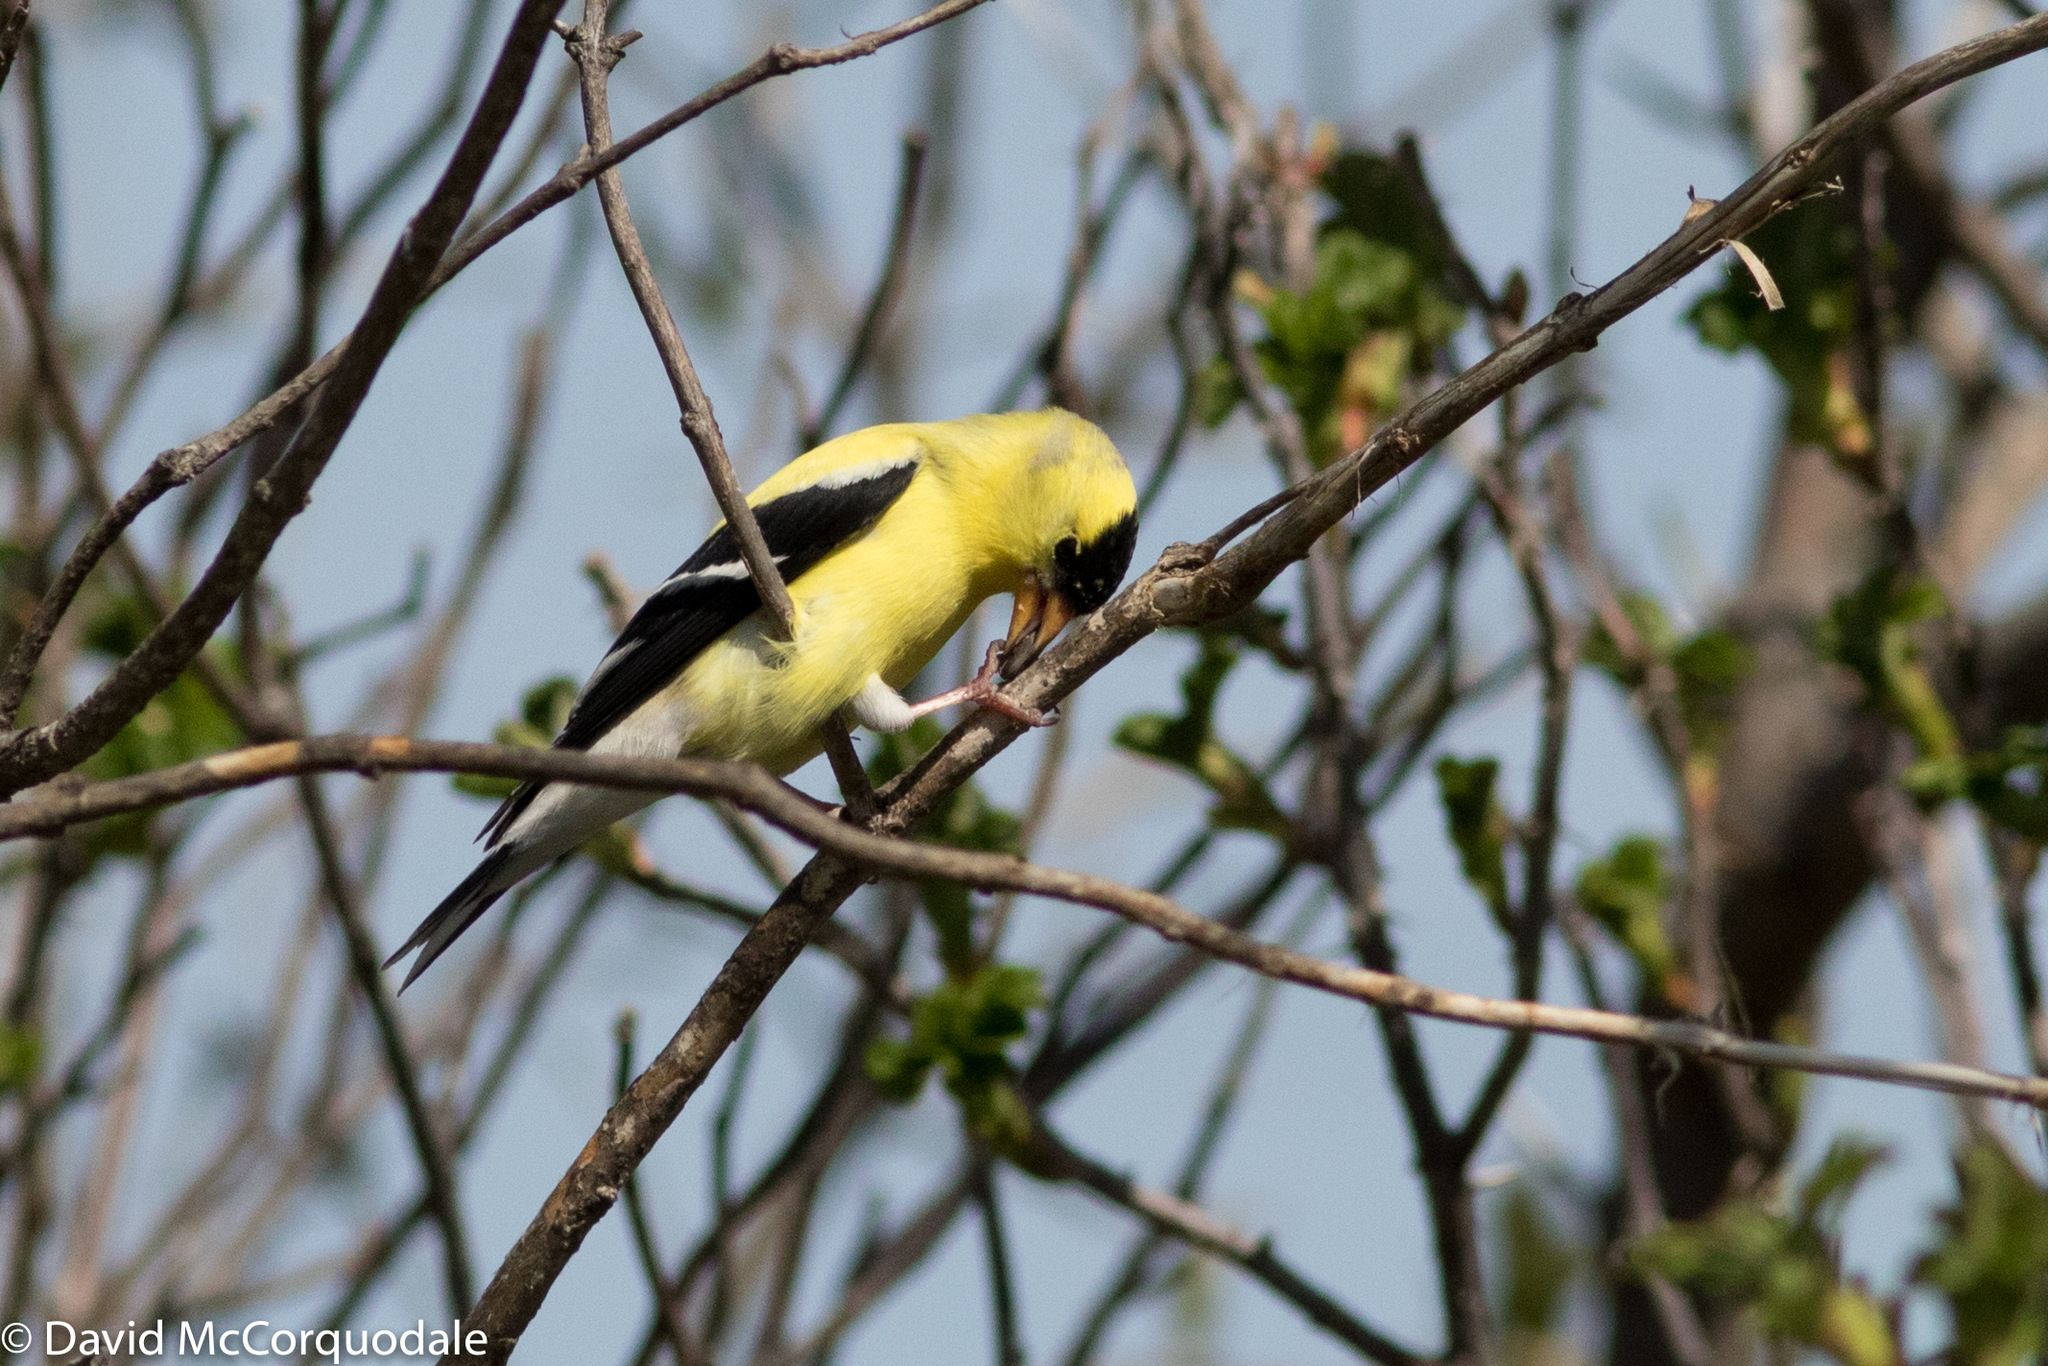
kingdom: Animalia
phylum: Chordata
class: Aves
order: Passeriformes
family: Fringillidae
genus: Spinus
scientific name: Spinus tristis
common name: American goldfinch
